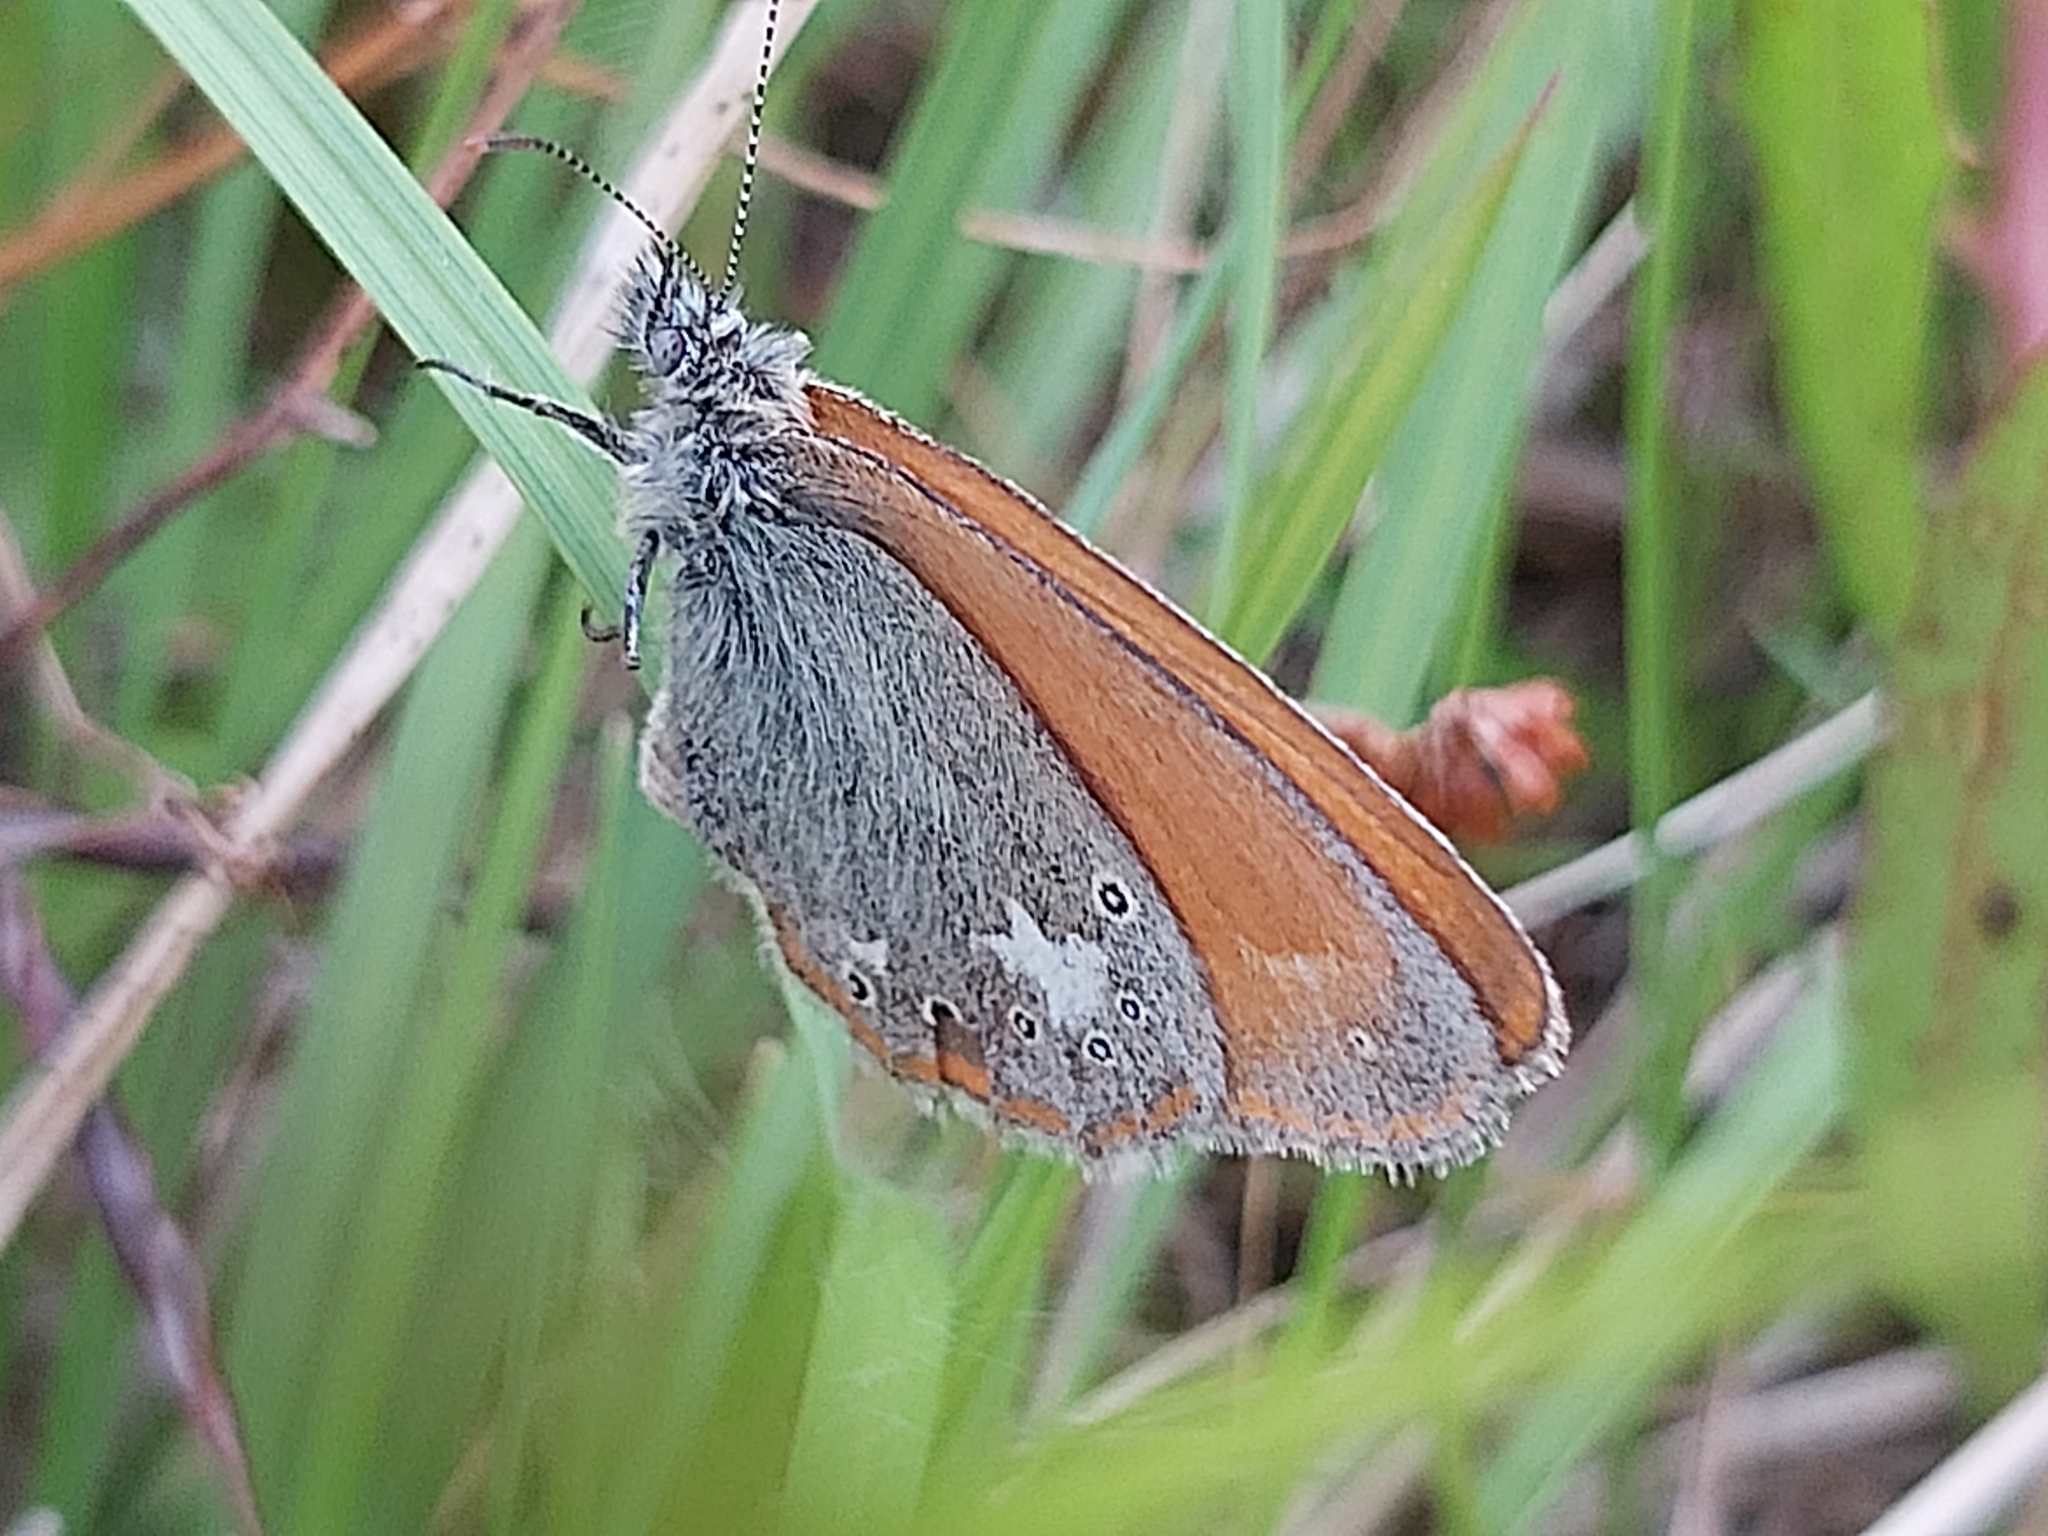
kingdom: Animalia
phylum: Arthropoda
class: Insecta
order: Lepidoptera
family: Nymphalidae
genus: Coenonympha
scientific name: Coenonympha iphis
